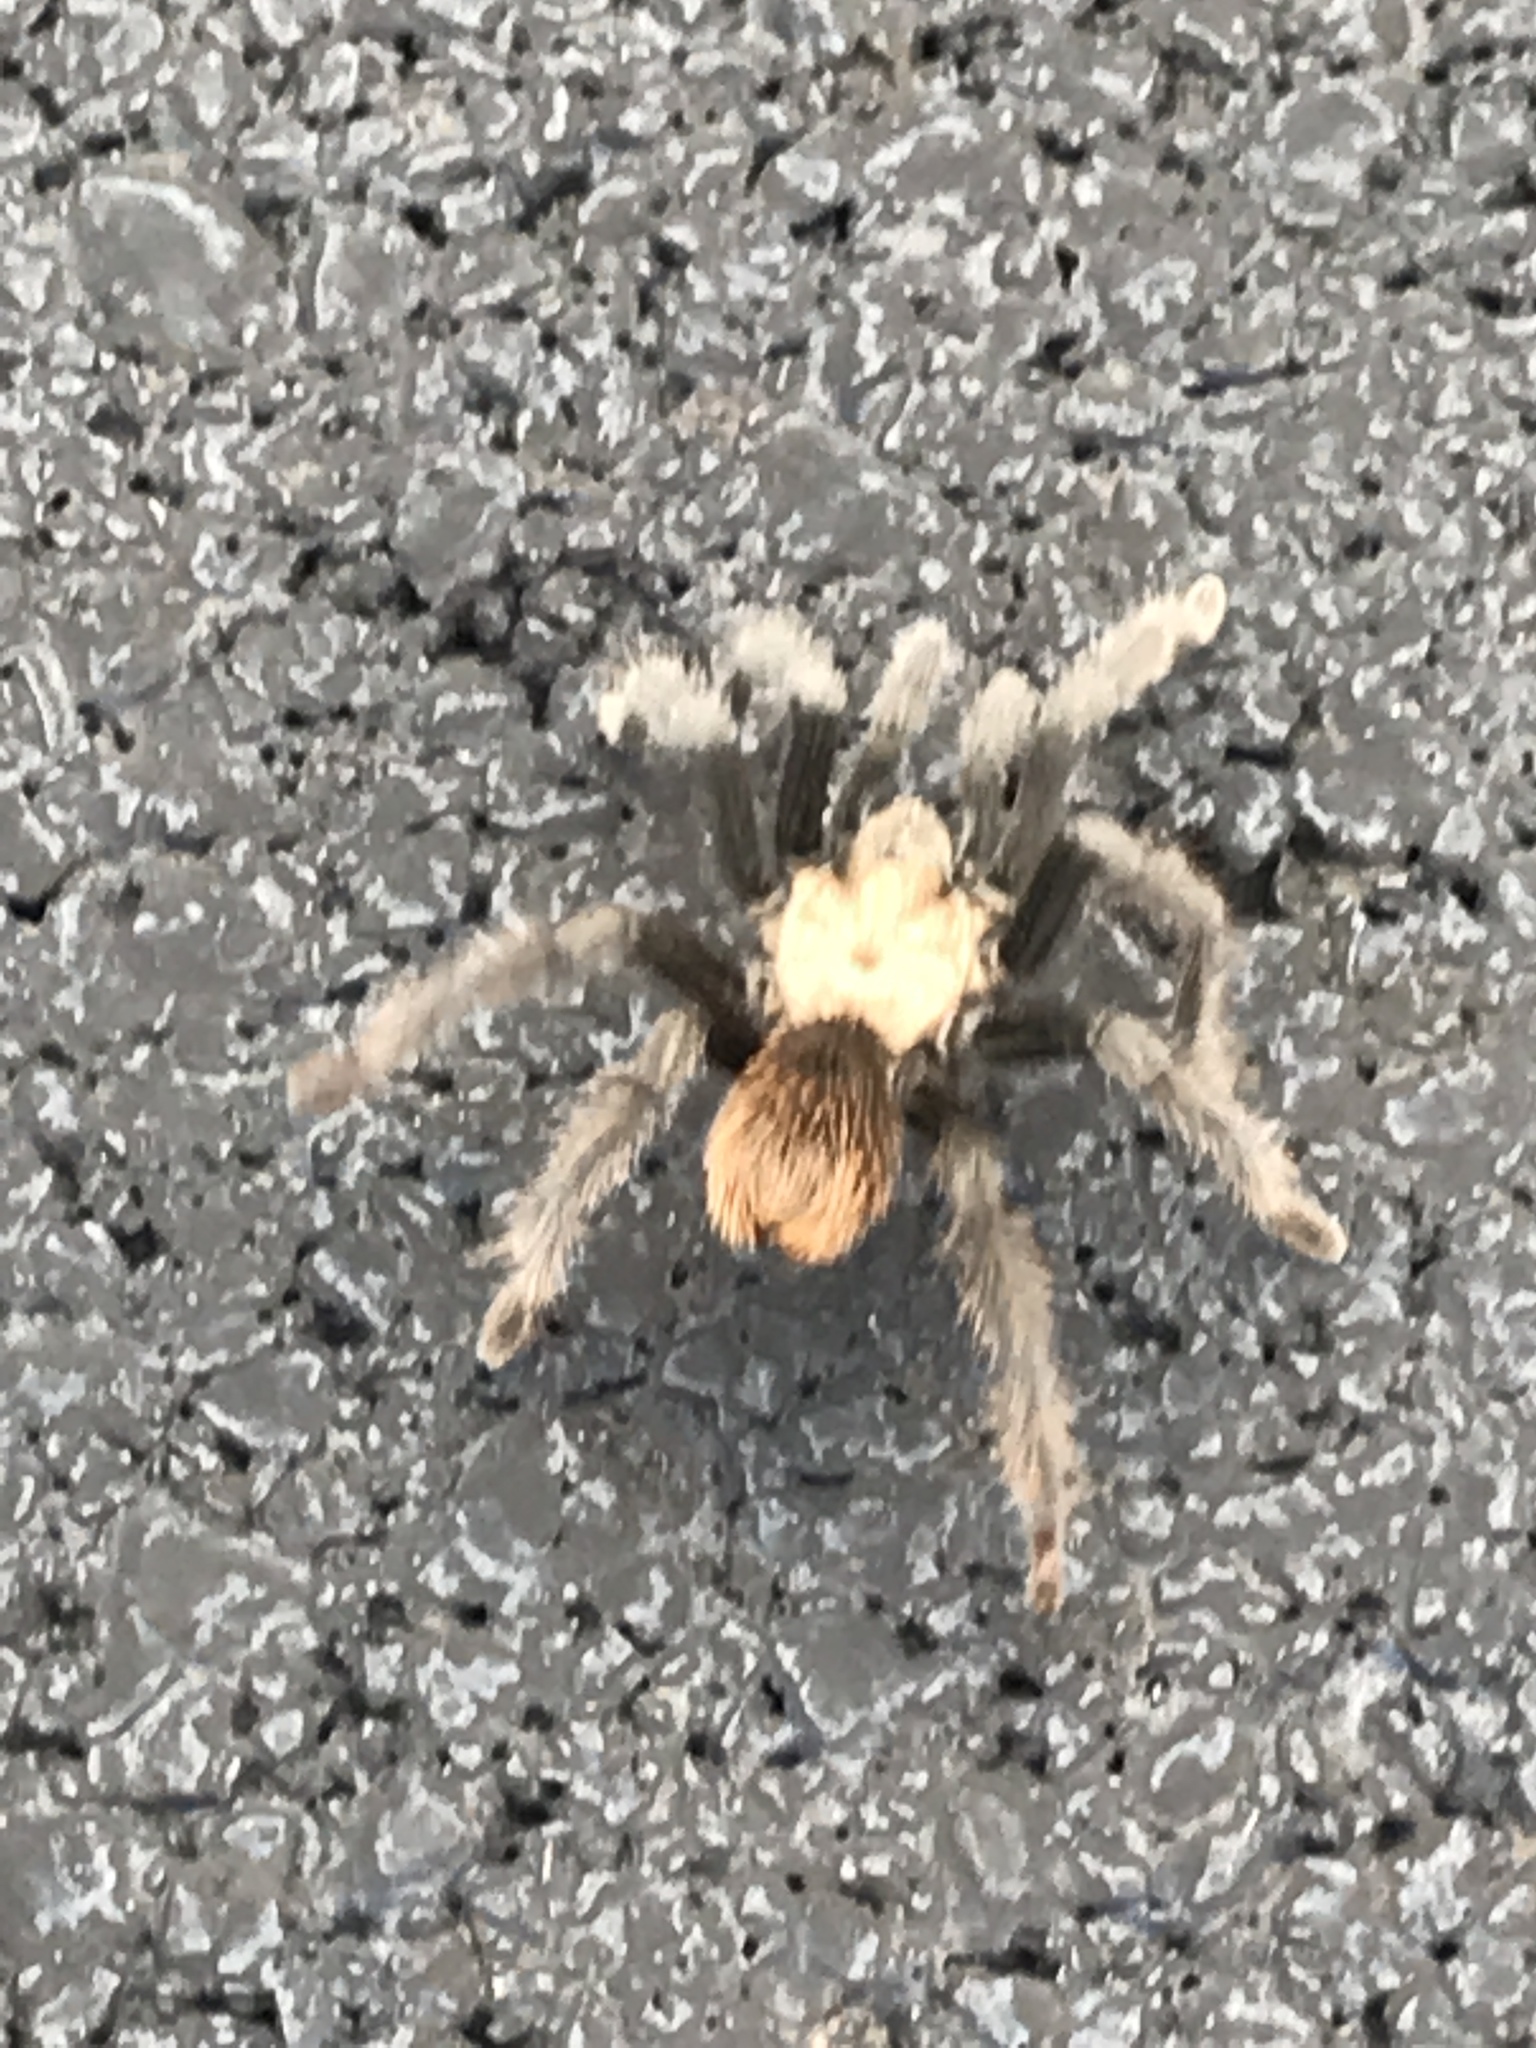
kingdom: Animalia
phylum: Arthropoda
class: Arachnida
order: Araneae
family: Theraphosidae
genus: Aphonopelma
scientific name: Aphonopelma iodius
